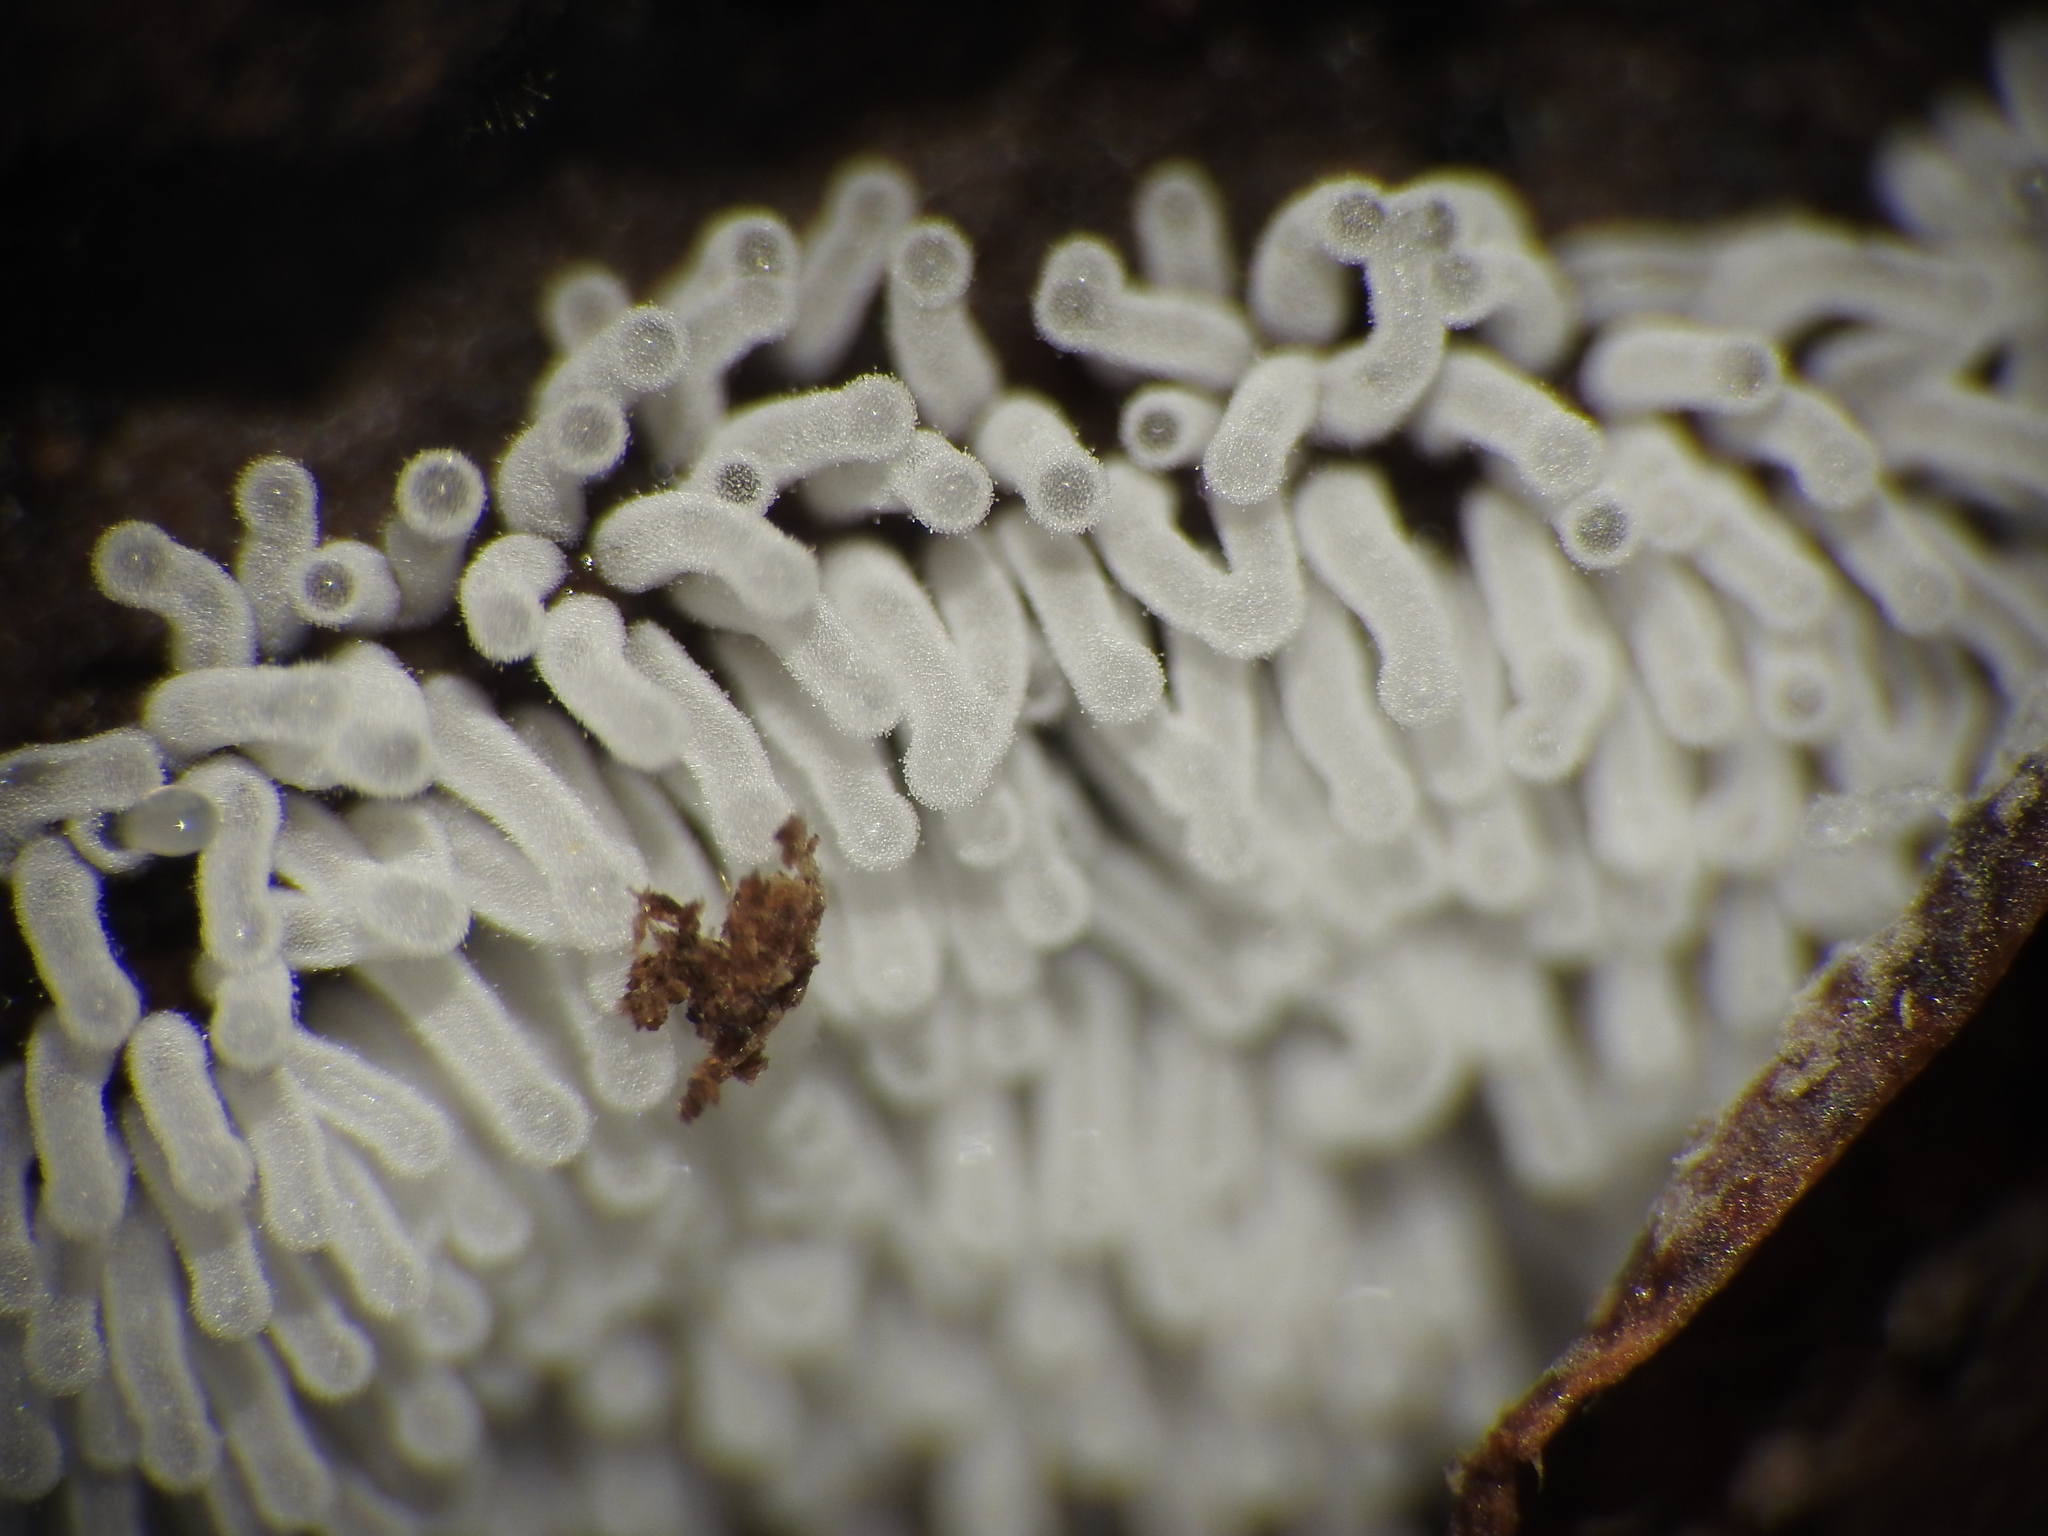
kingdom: Protozoa
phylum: Mycetozoa
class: Protosteliomycetes
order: Ceratiomyxales
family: Ceratiomyxaceae
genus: Ceratiomyxa
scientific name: Ceratiomyxa fruticulosa
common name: Honeycomb coral slime mold
